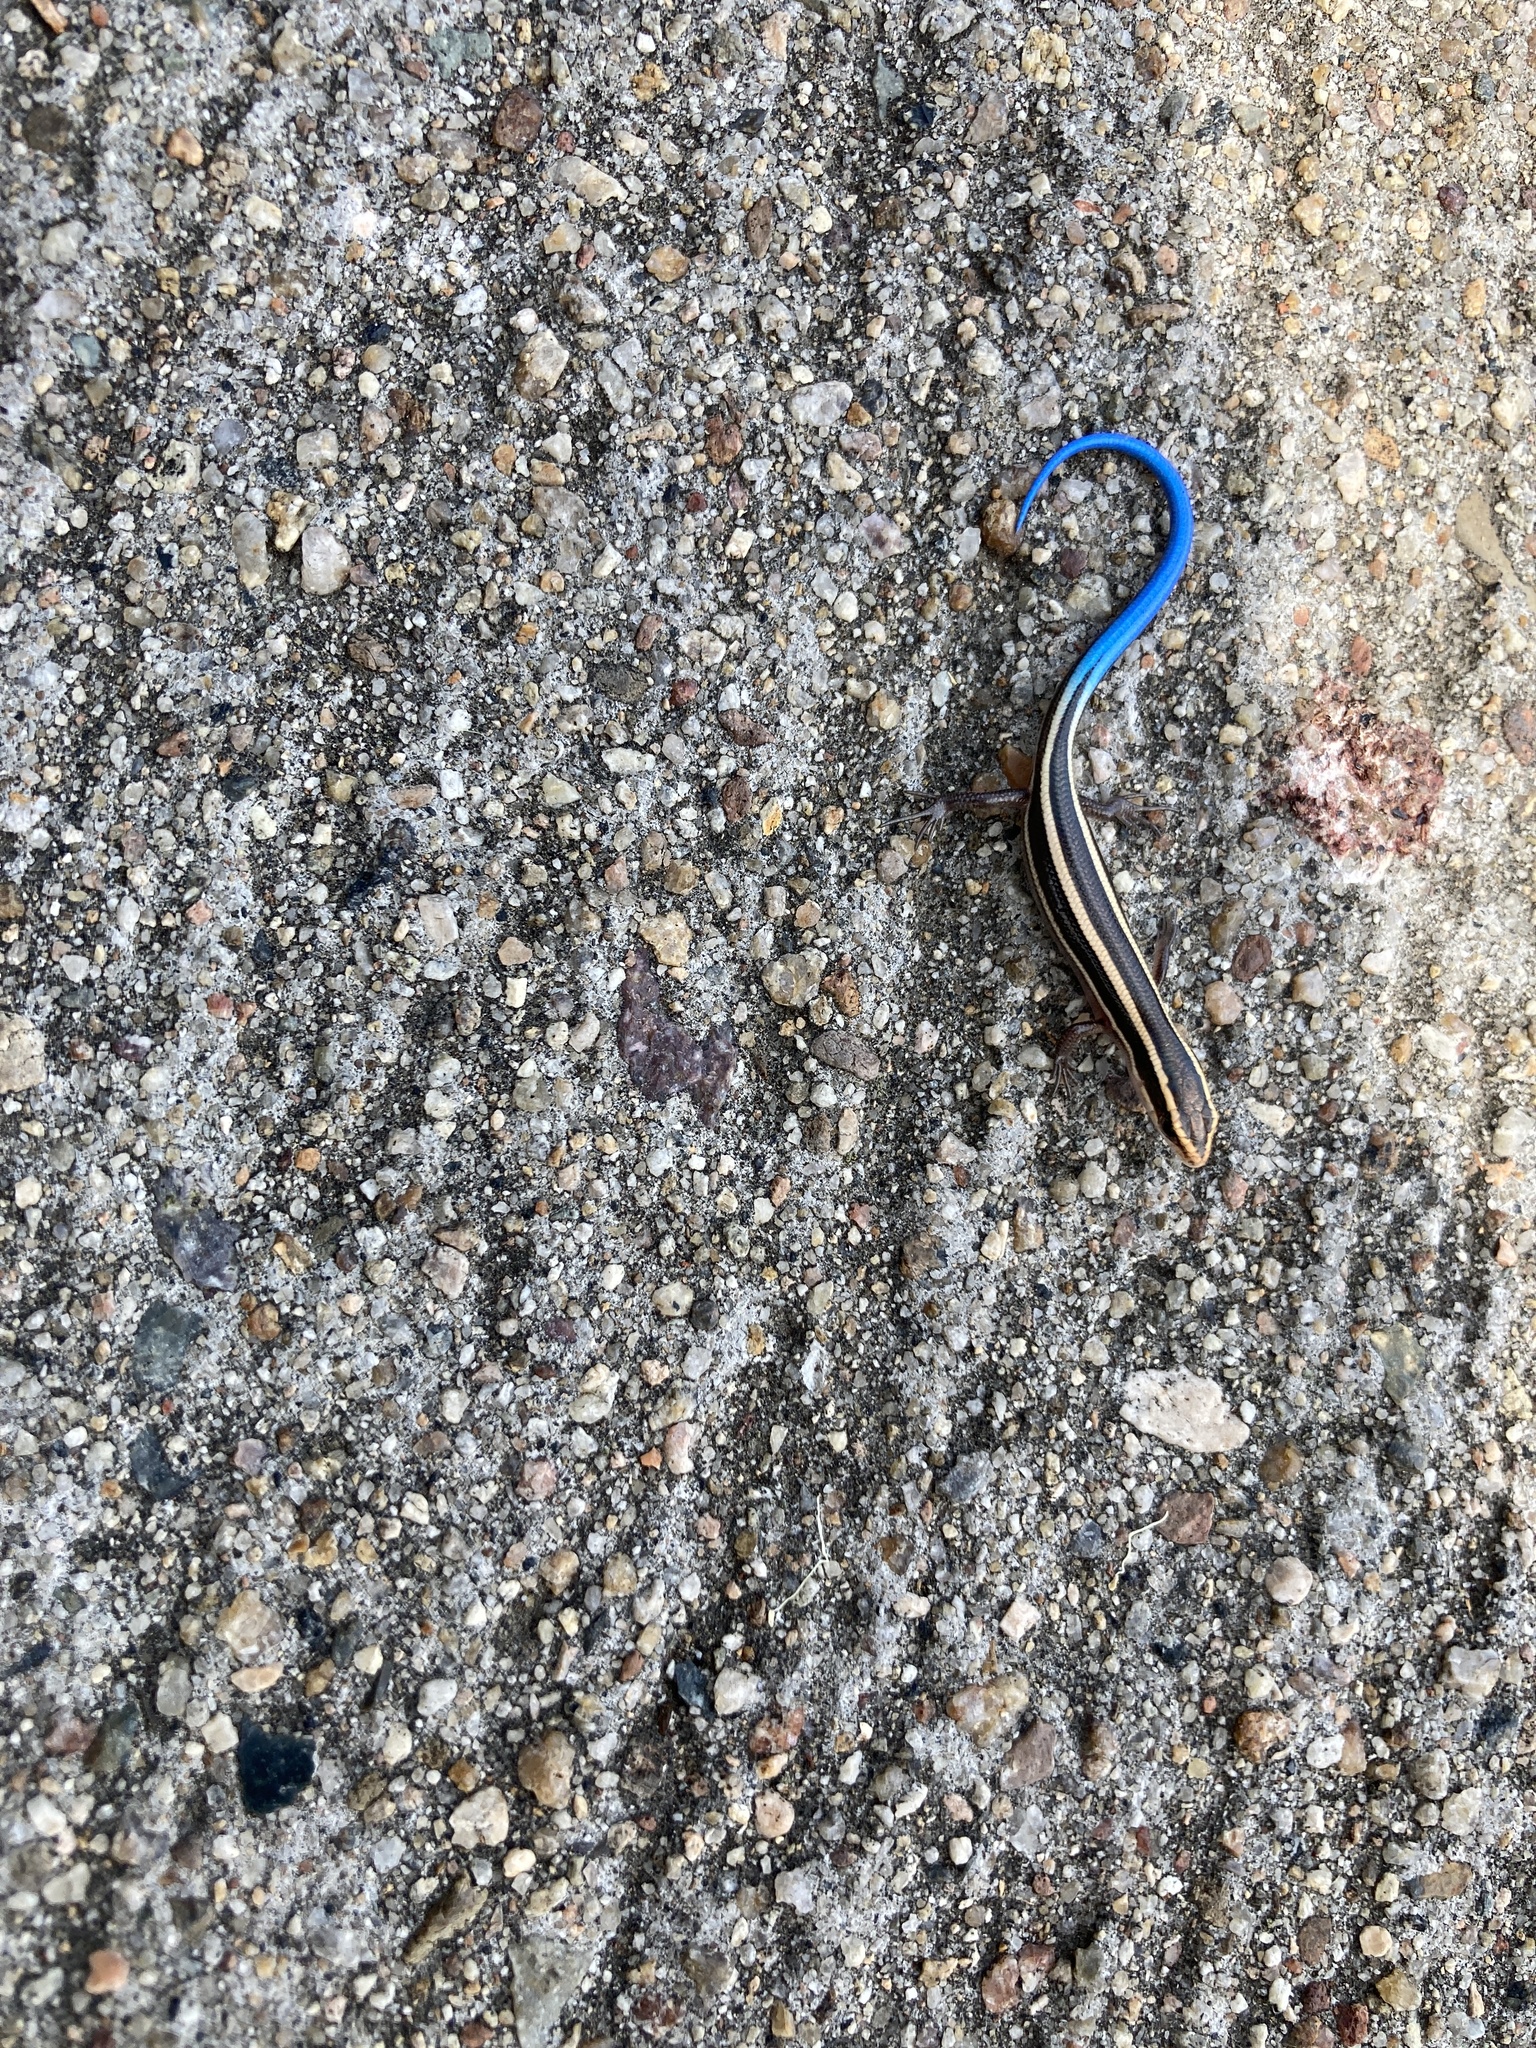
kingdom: Animalia
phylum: Chordata
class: Squamata
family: Scincidae
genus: Plestiodon
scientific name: Plestiodon skiltonianus
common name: Coronado island skink [interparietalis]
